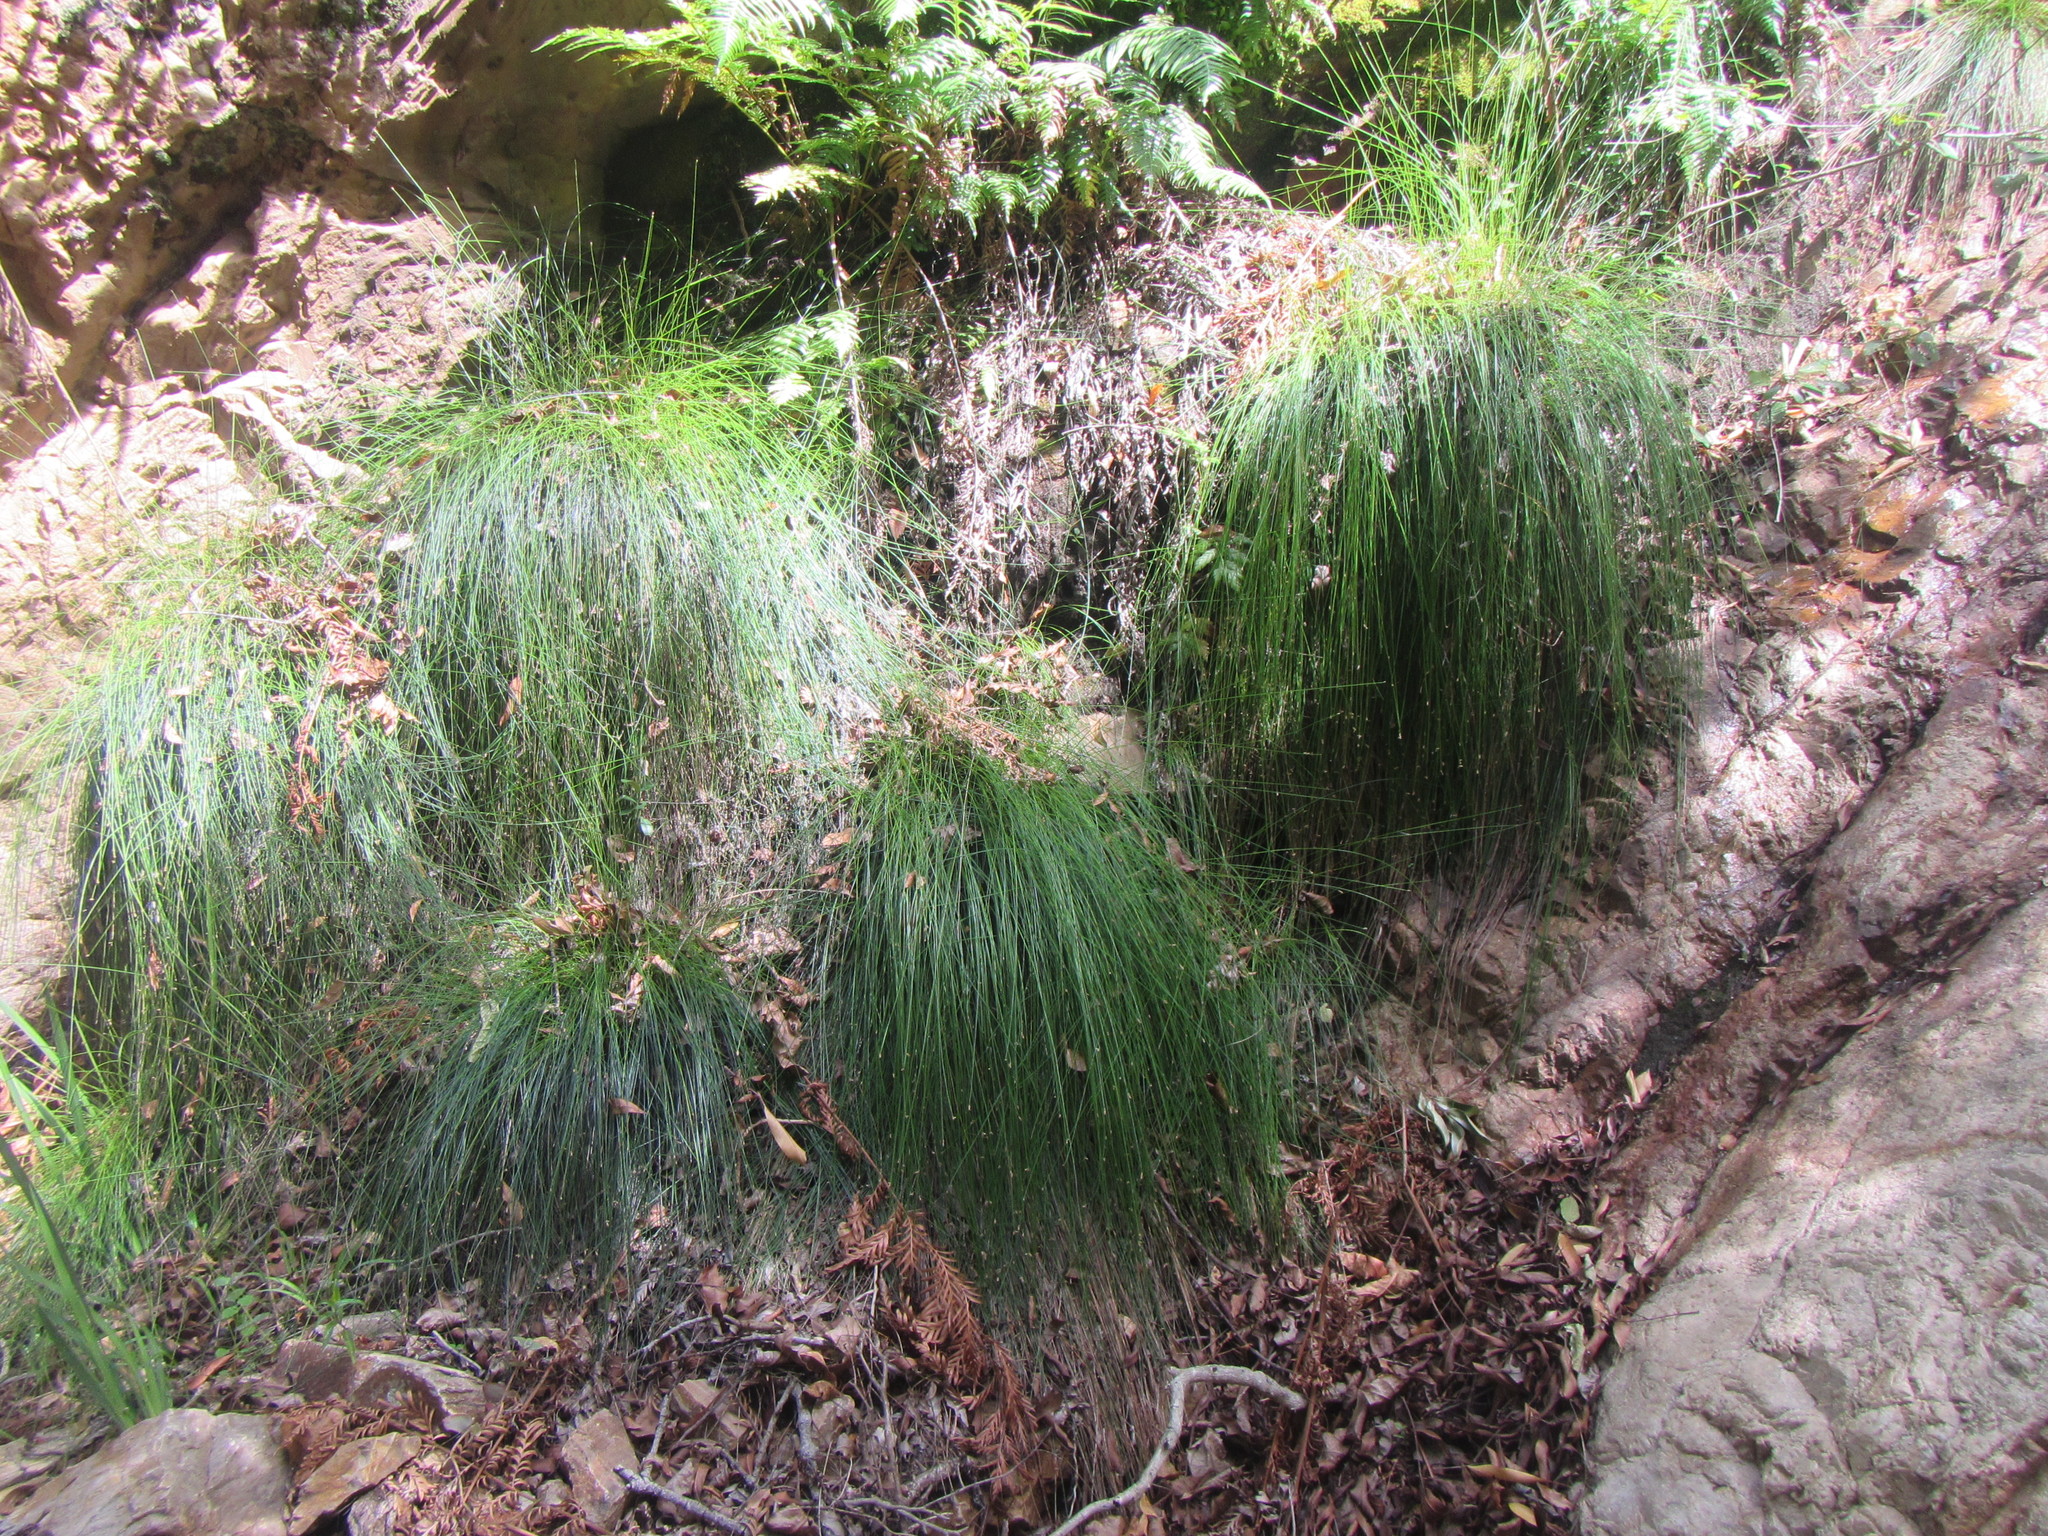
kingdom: Plantae
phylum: Tracheophyta
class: Liliopsida
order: Poales
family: Cyperaceae
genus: Ficinia
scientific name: Ficinia trispicata
